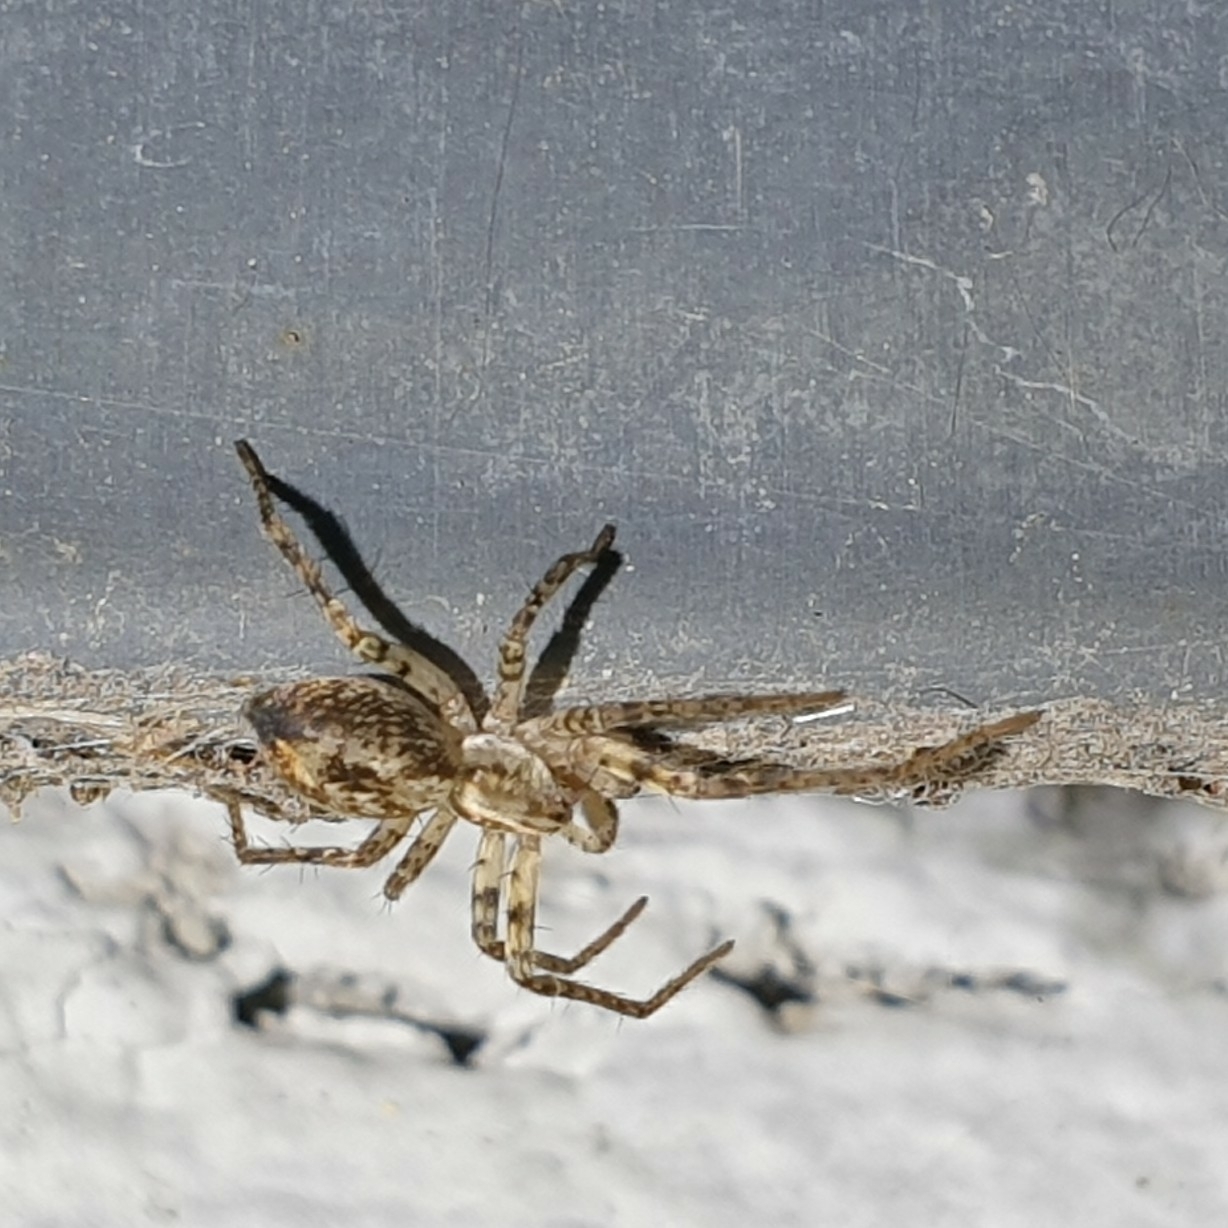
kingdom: Animalia
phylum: Arthropoda
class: Arachnida
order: Araneae
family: Anyphaenidae
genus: Anyphaena
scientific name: Anyphaena accentuata
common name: Buzzing spider
